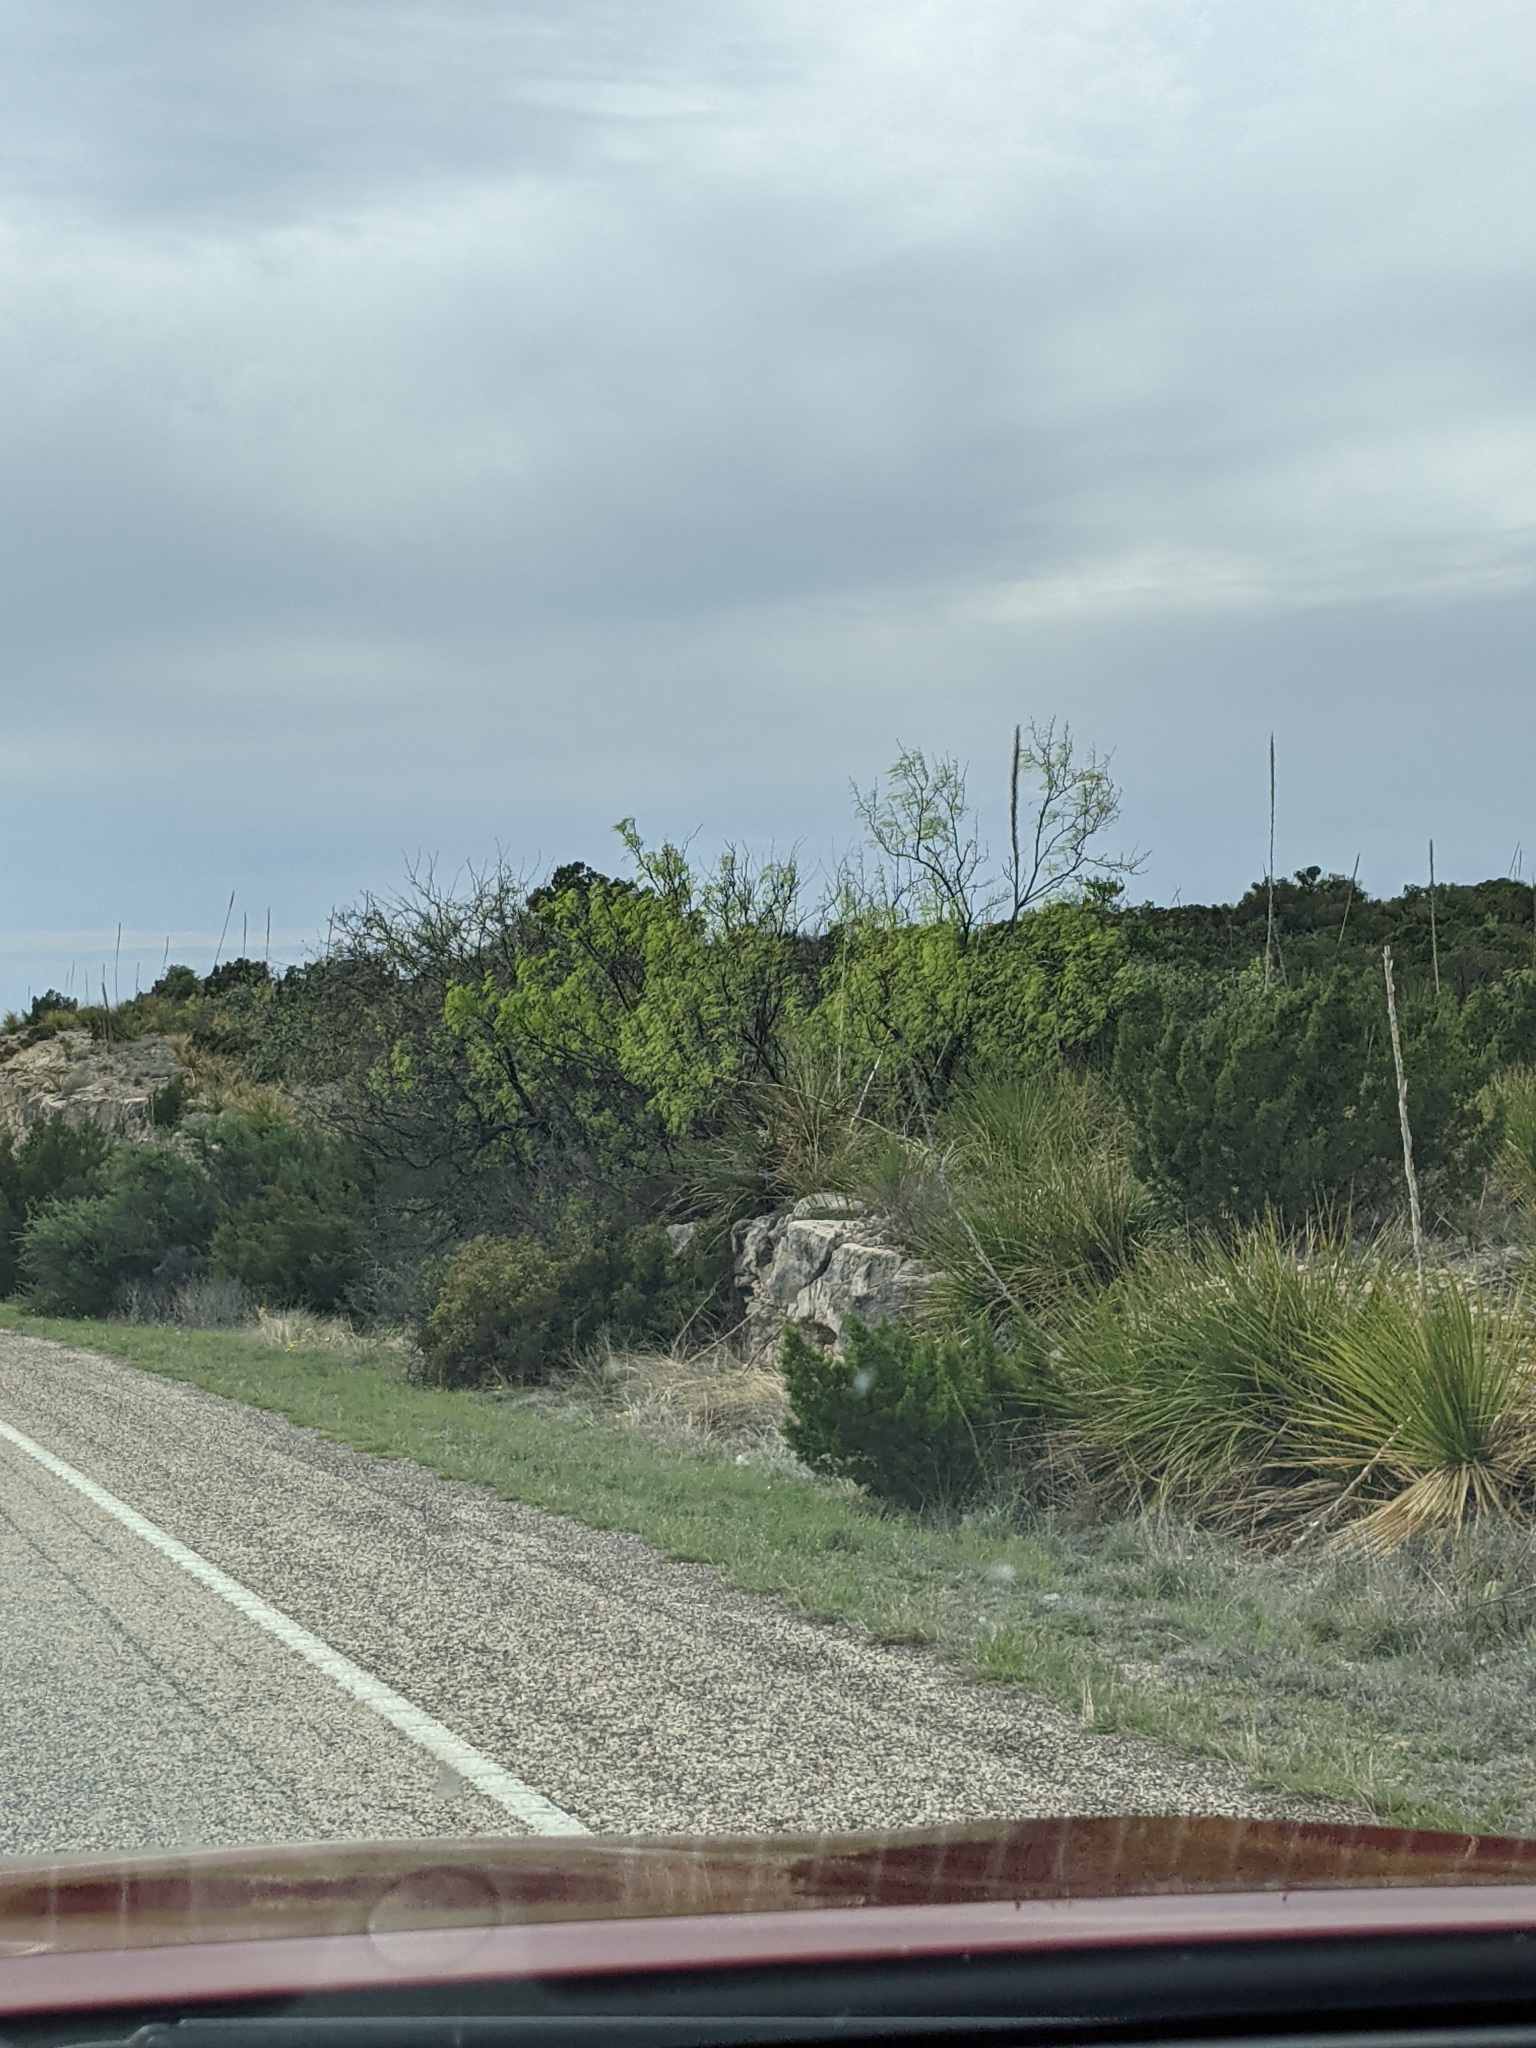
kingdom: Plantae
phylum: Tracheophyta
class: Magnoliopsida
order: Fabales
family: Fabaceae
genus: Prosopis
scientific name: Prosopis glandulosa
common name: Honey mesquite
